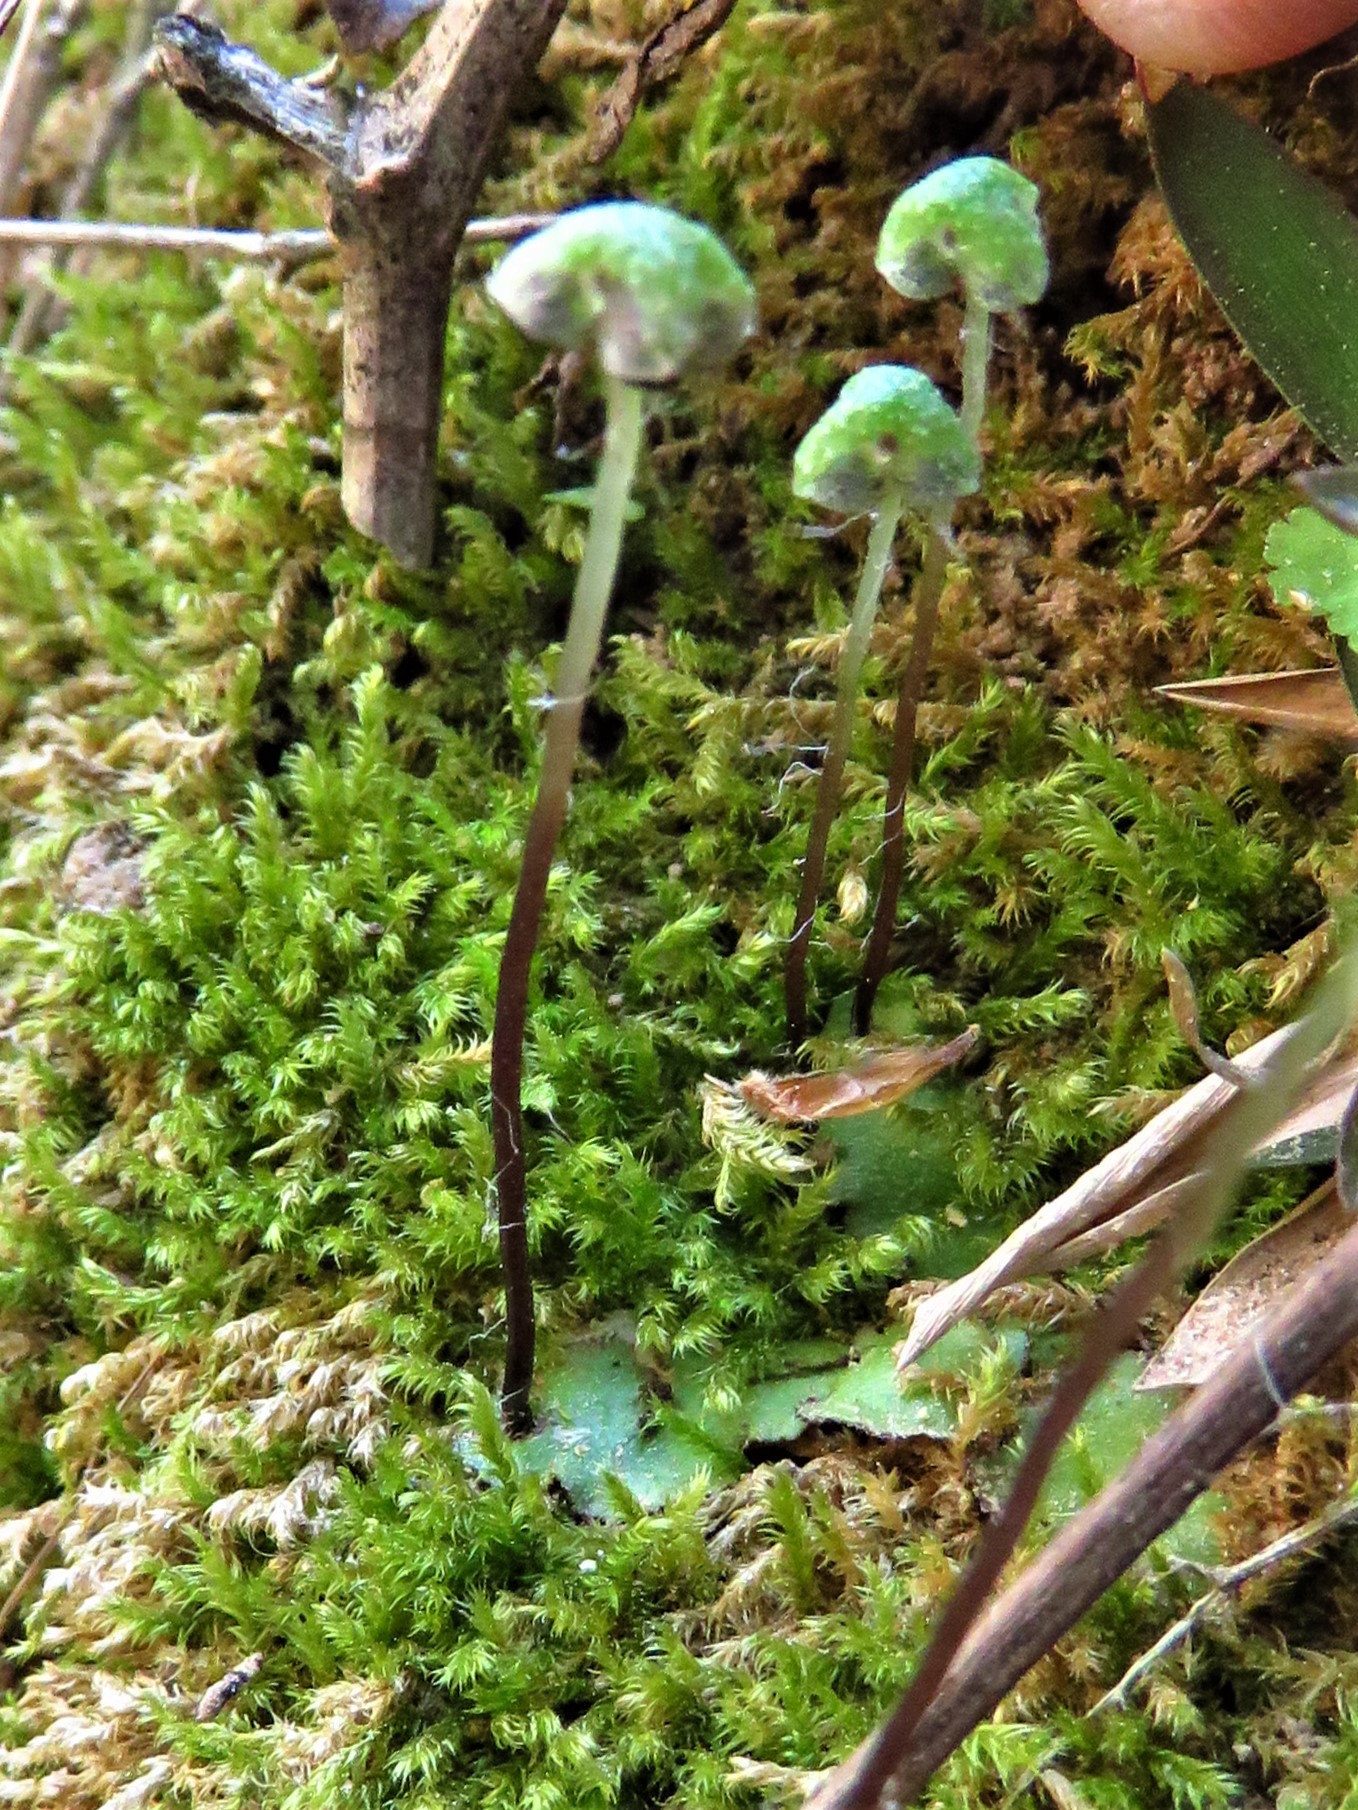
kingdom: Plantae
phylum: Marchantiophyta
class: Marchantiopsida
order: Marchantiales
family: Aytoniaceae
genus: Reboulia
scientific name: Reboulia hemisphaerica
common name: Purple-margined liverwort
